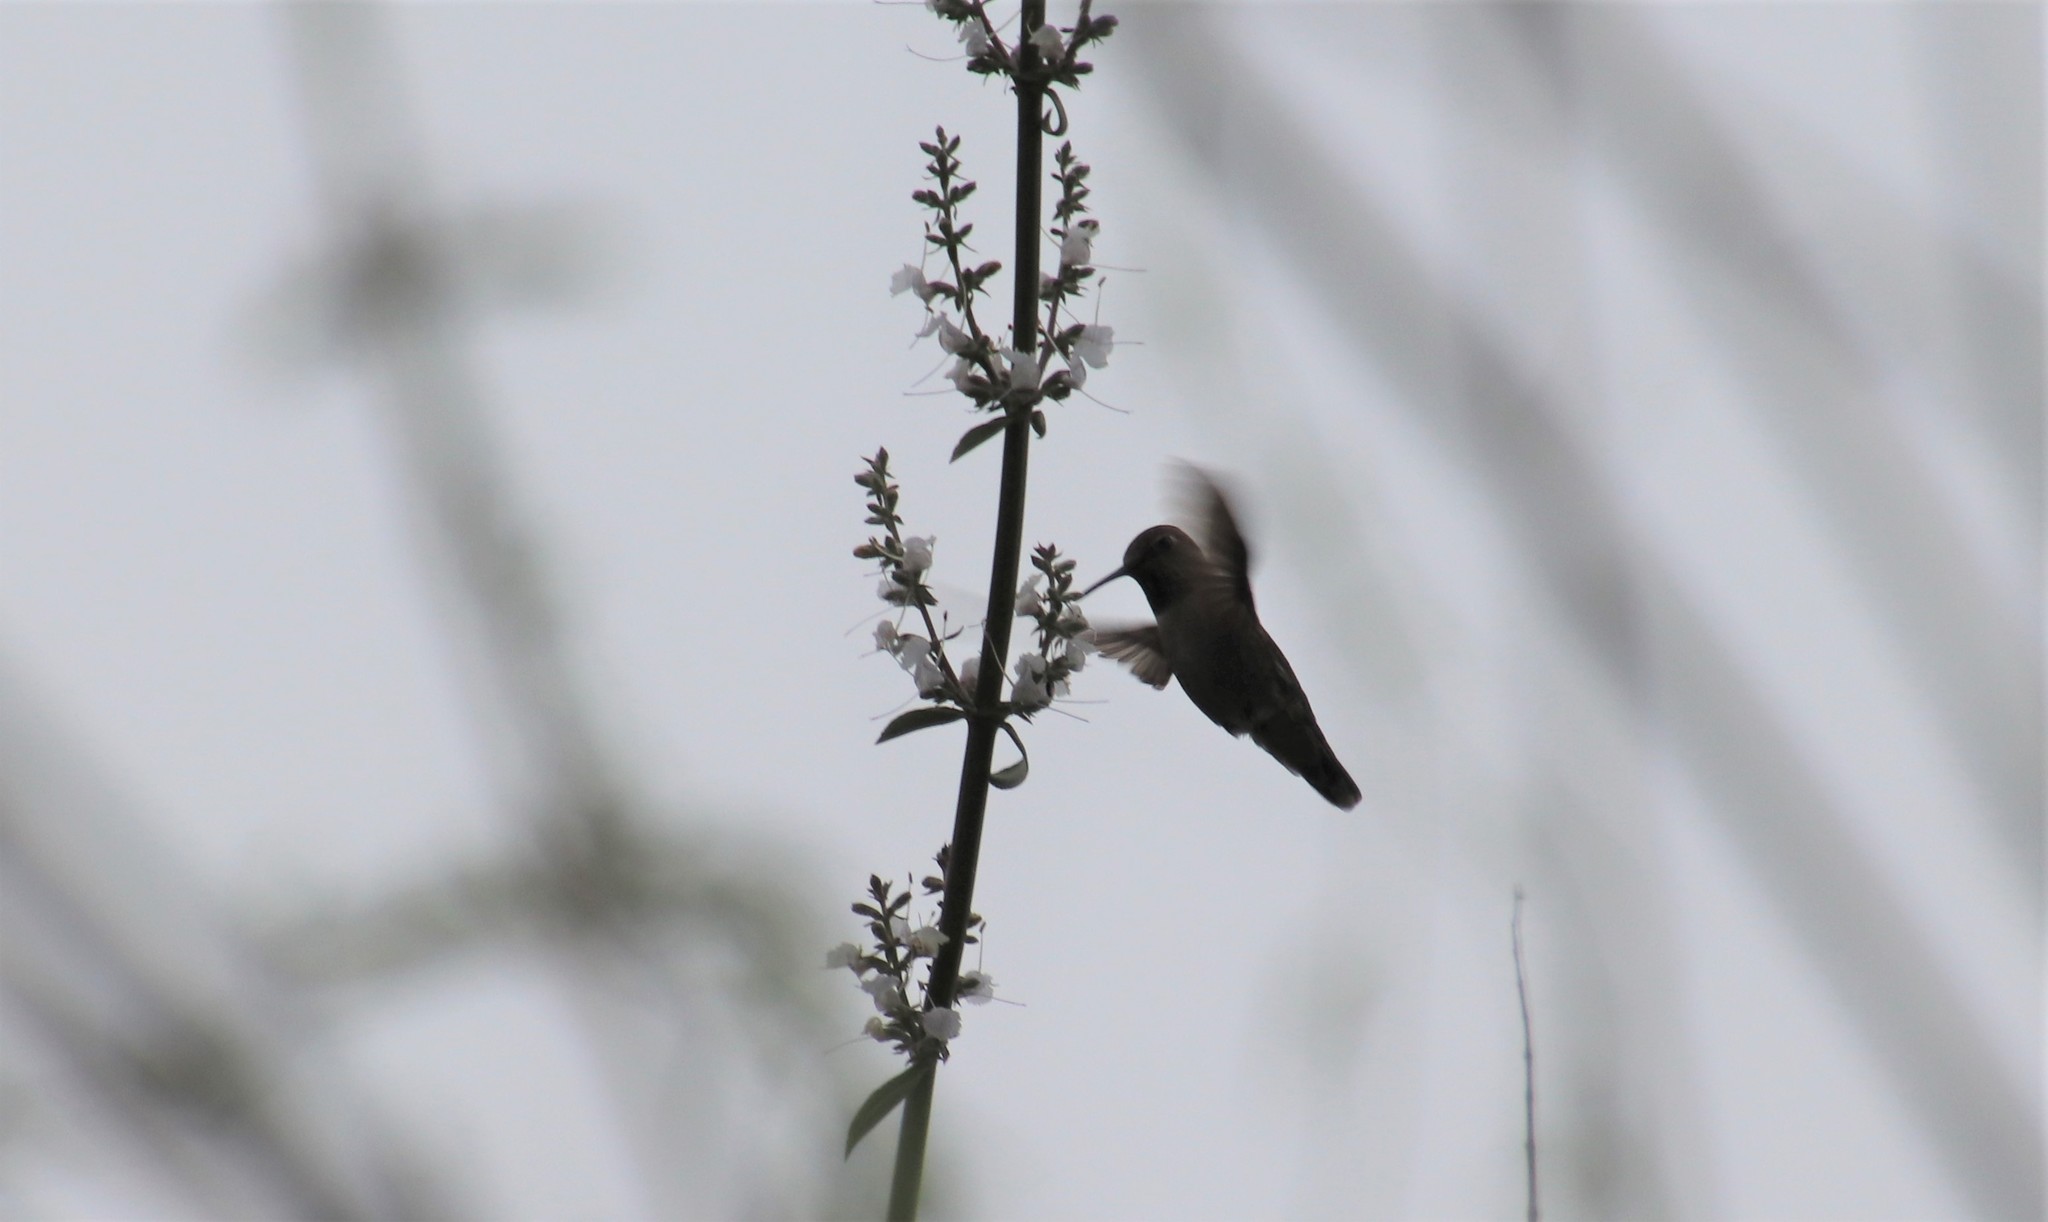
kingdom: Animalia
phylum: Chordata
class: Aves
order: Apodiformes
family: Trochilidae
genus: Calypte
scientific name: Calypte anna
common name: Anna's hummingbird
